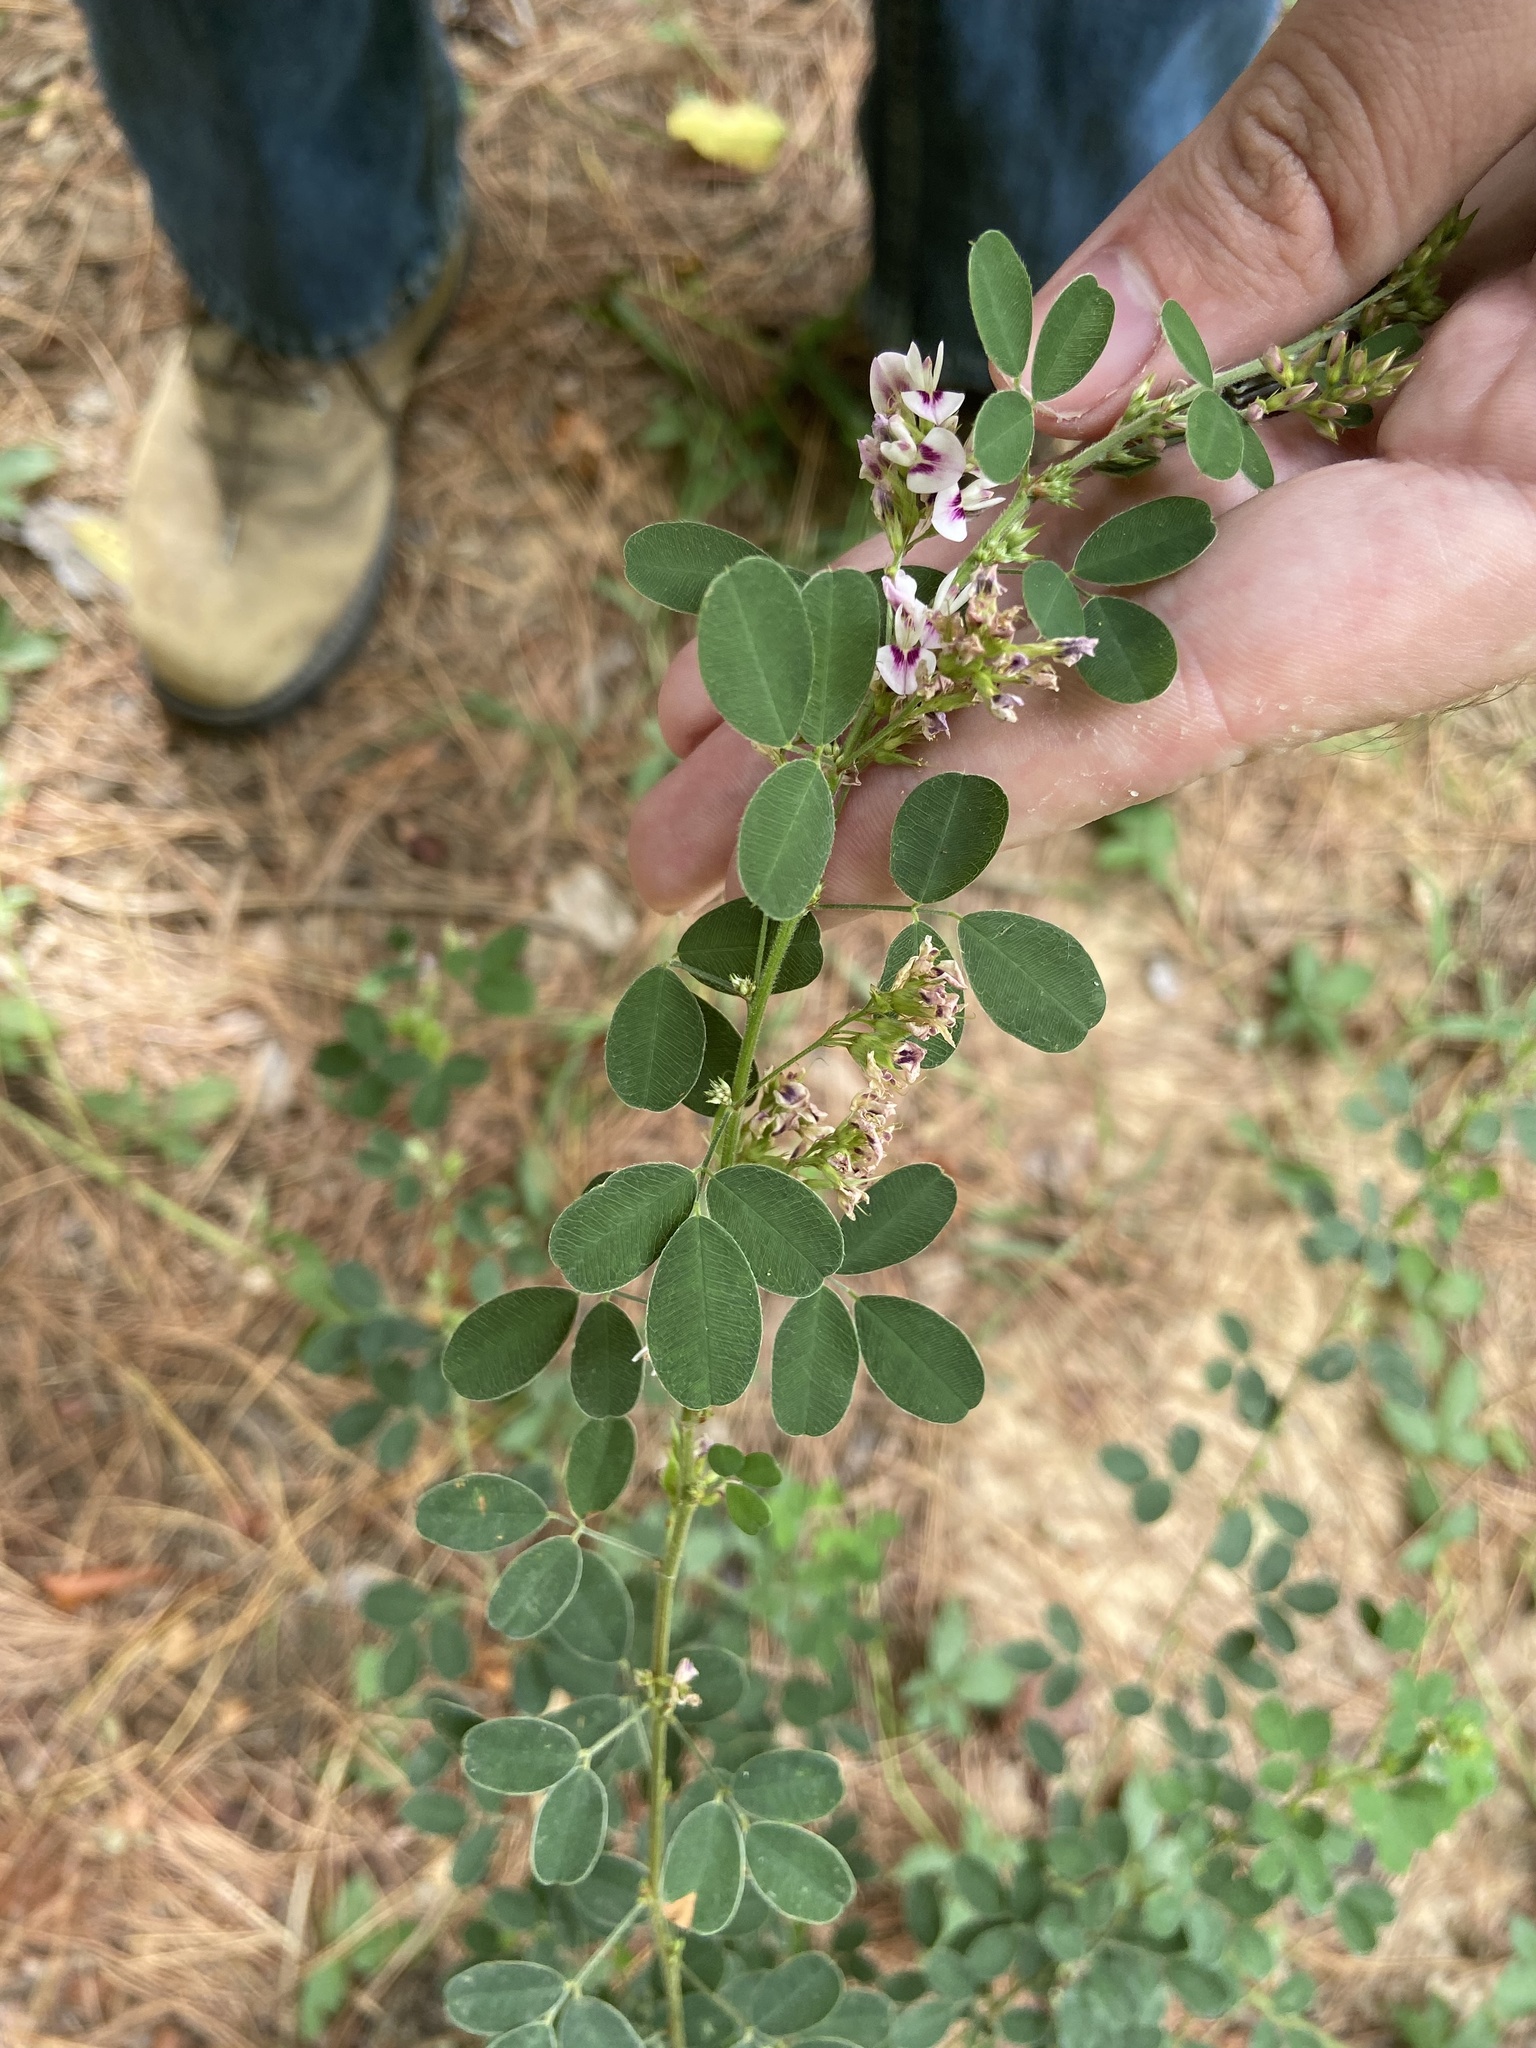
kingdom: Plantae
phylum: Tracheophyta
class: Magnoliopsida
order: Fabales
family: Fabaceae
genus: Lespedeza
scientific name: Lespedeza hirta
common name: Hairy lespedeza
